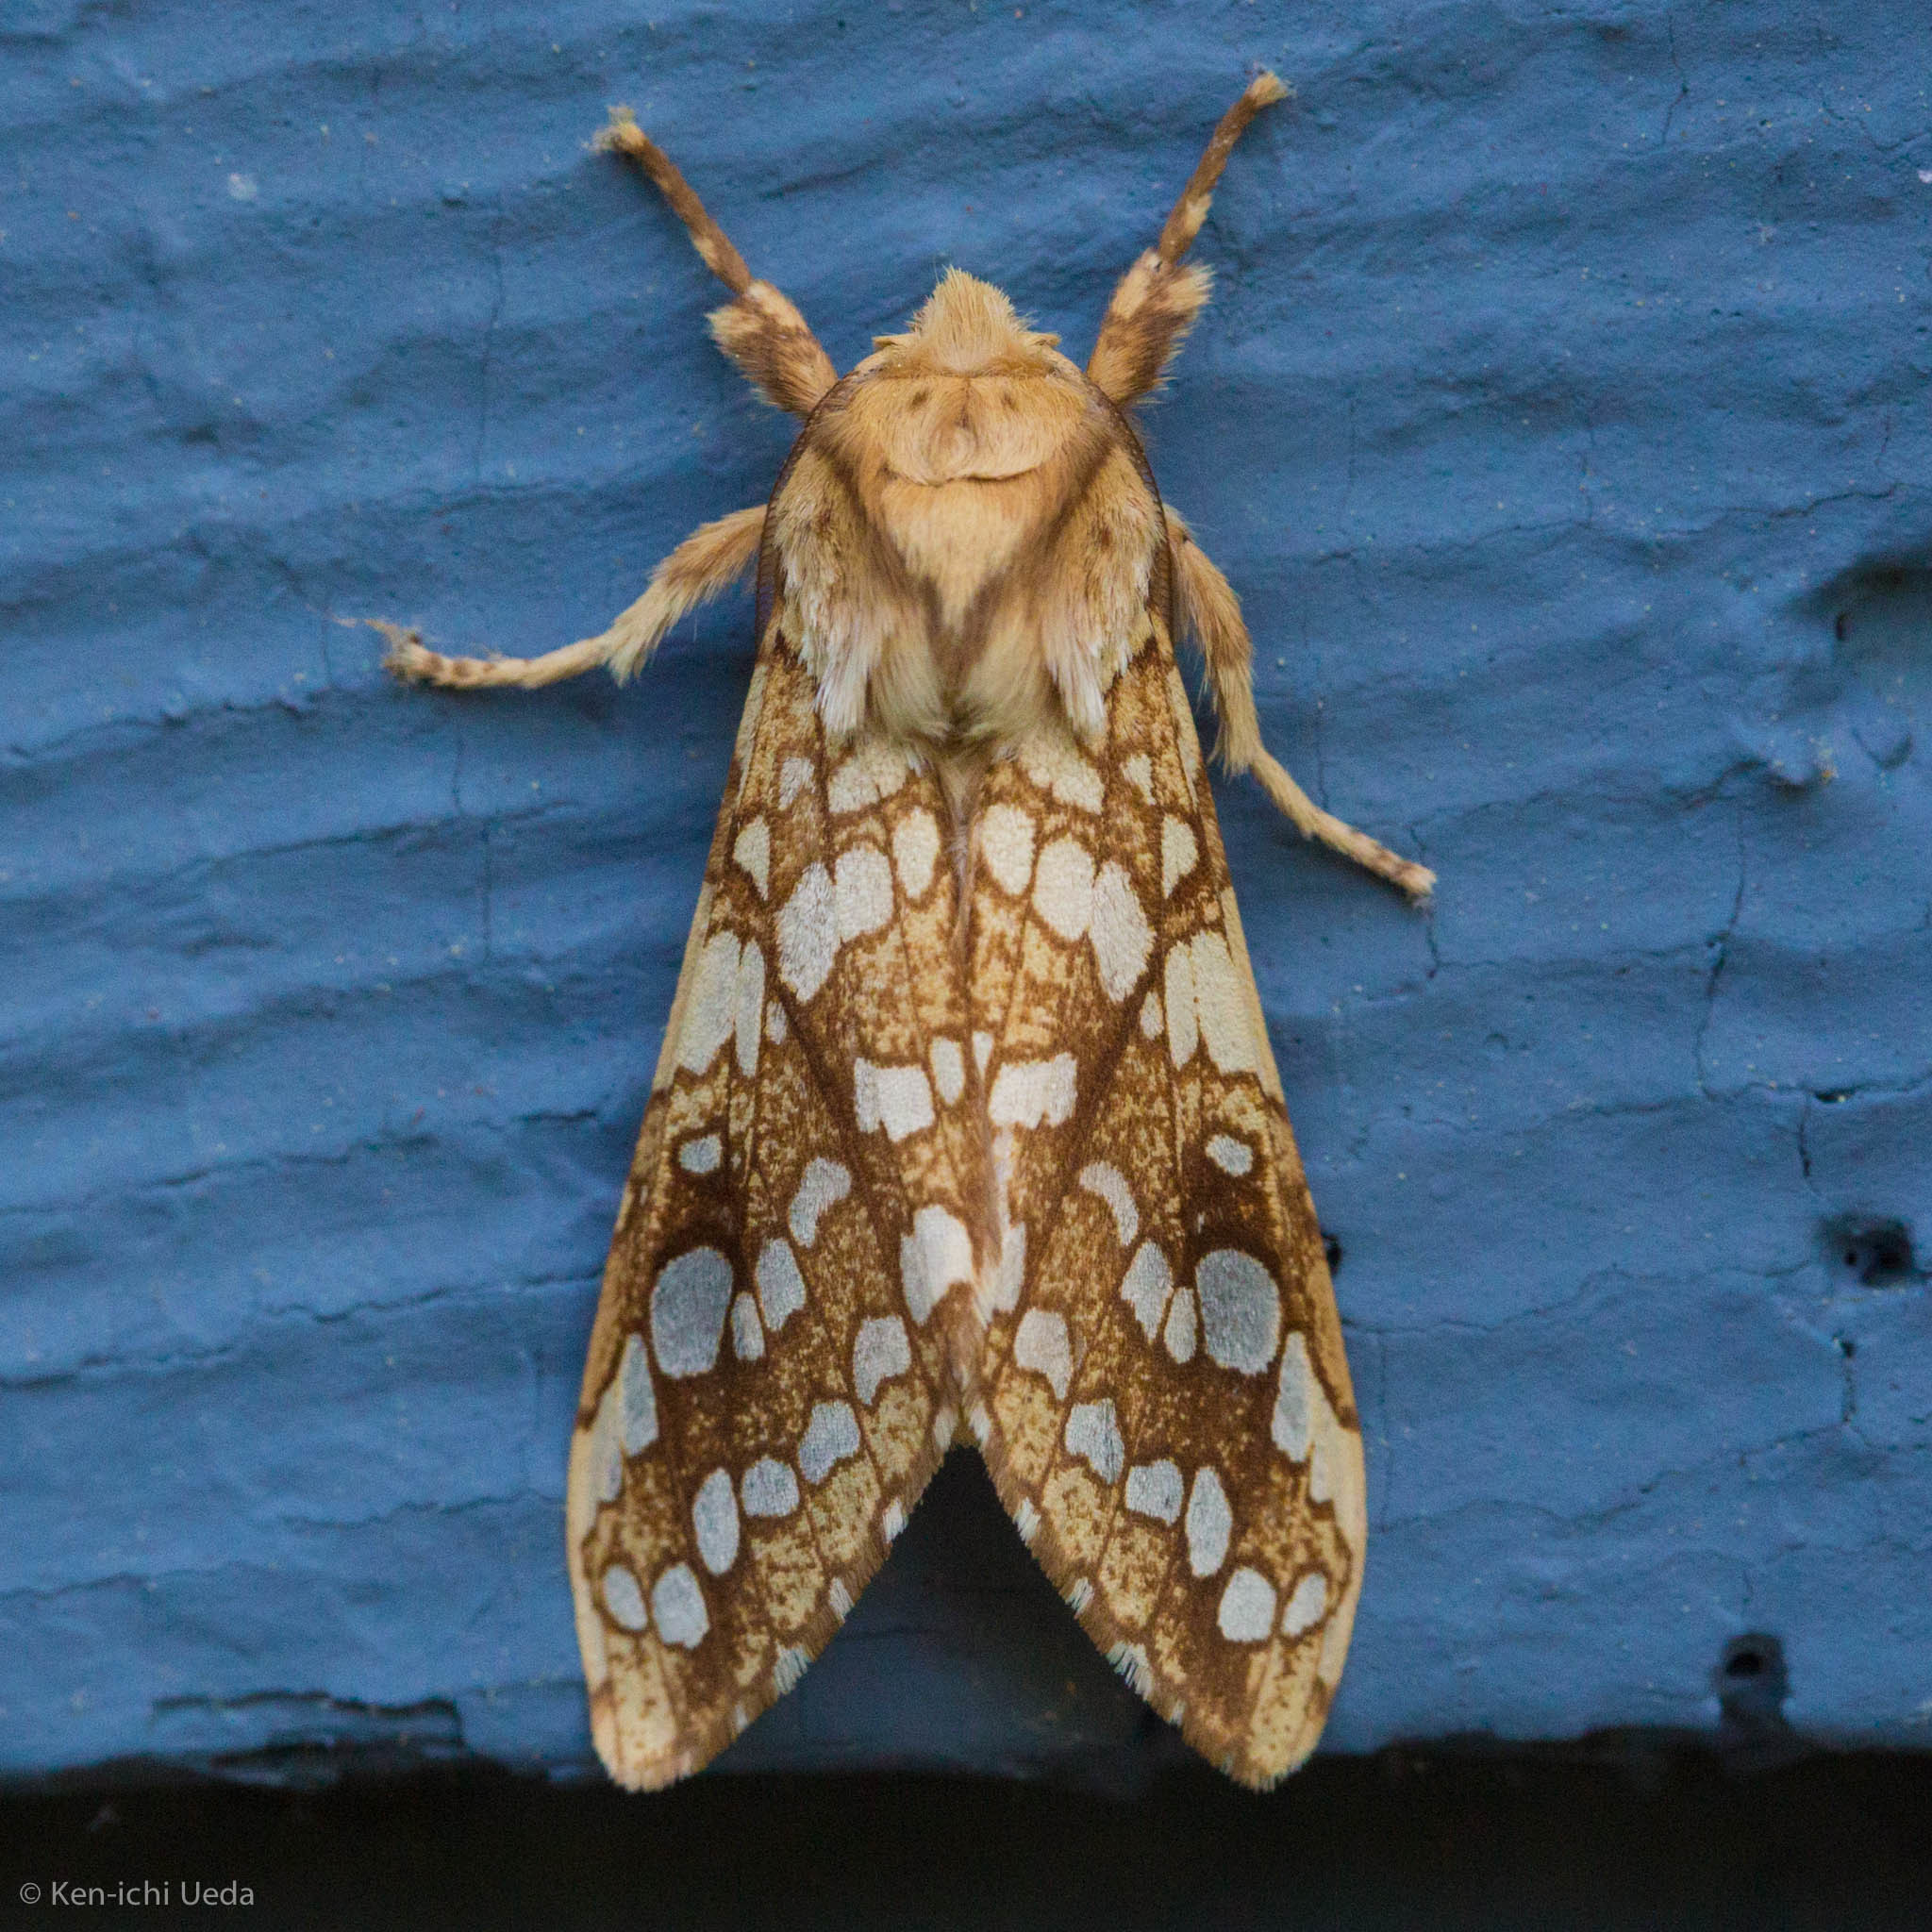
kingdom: Animalia
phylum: Arthropoda
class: Insecta
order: Lepidoptera
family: Erebidae
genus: Lophocampa
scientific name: Lophocampa caryae
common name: Hickory tussock moth
